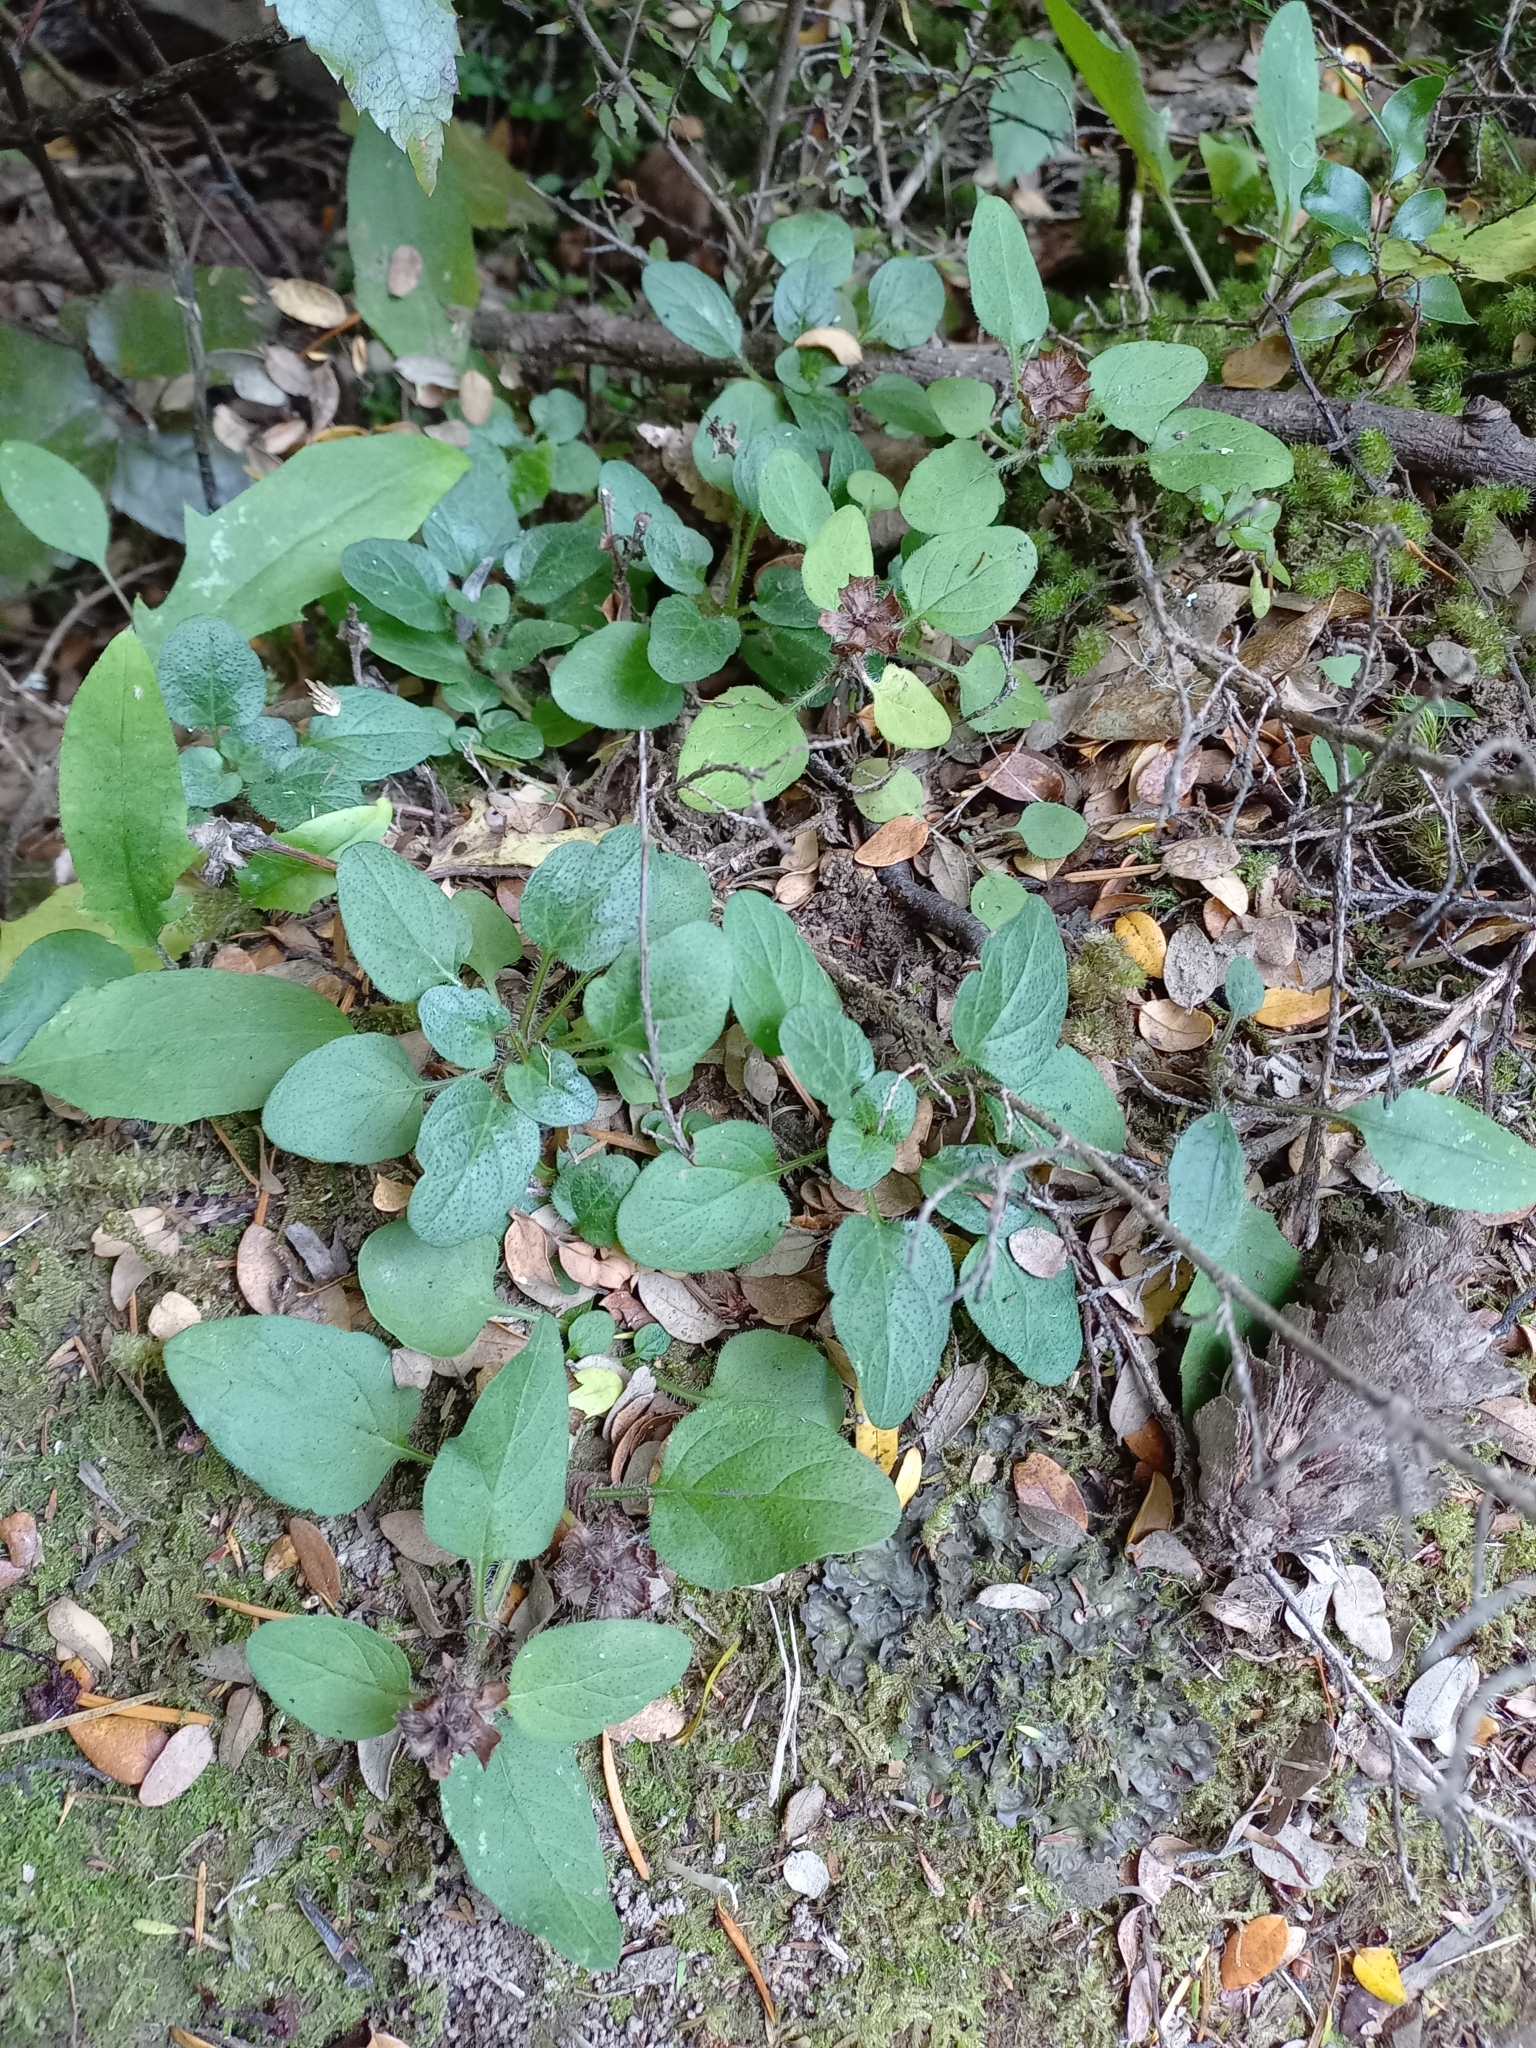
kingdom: Plantae
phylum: Tracheophyta
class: Magnoliopsida
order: Lamiales
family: Lamiaceae
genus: Prunella
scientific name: Prunella vulgaris
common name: Heal-all
